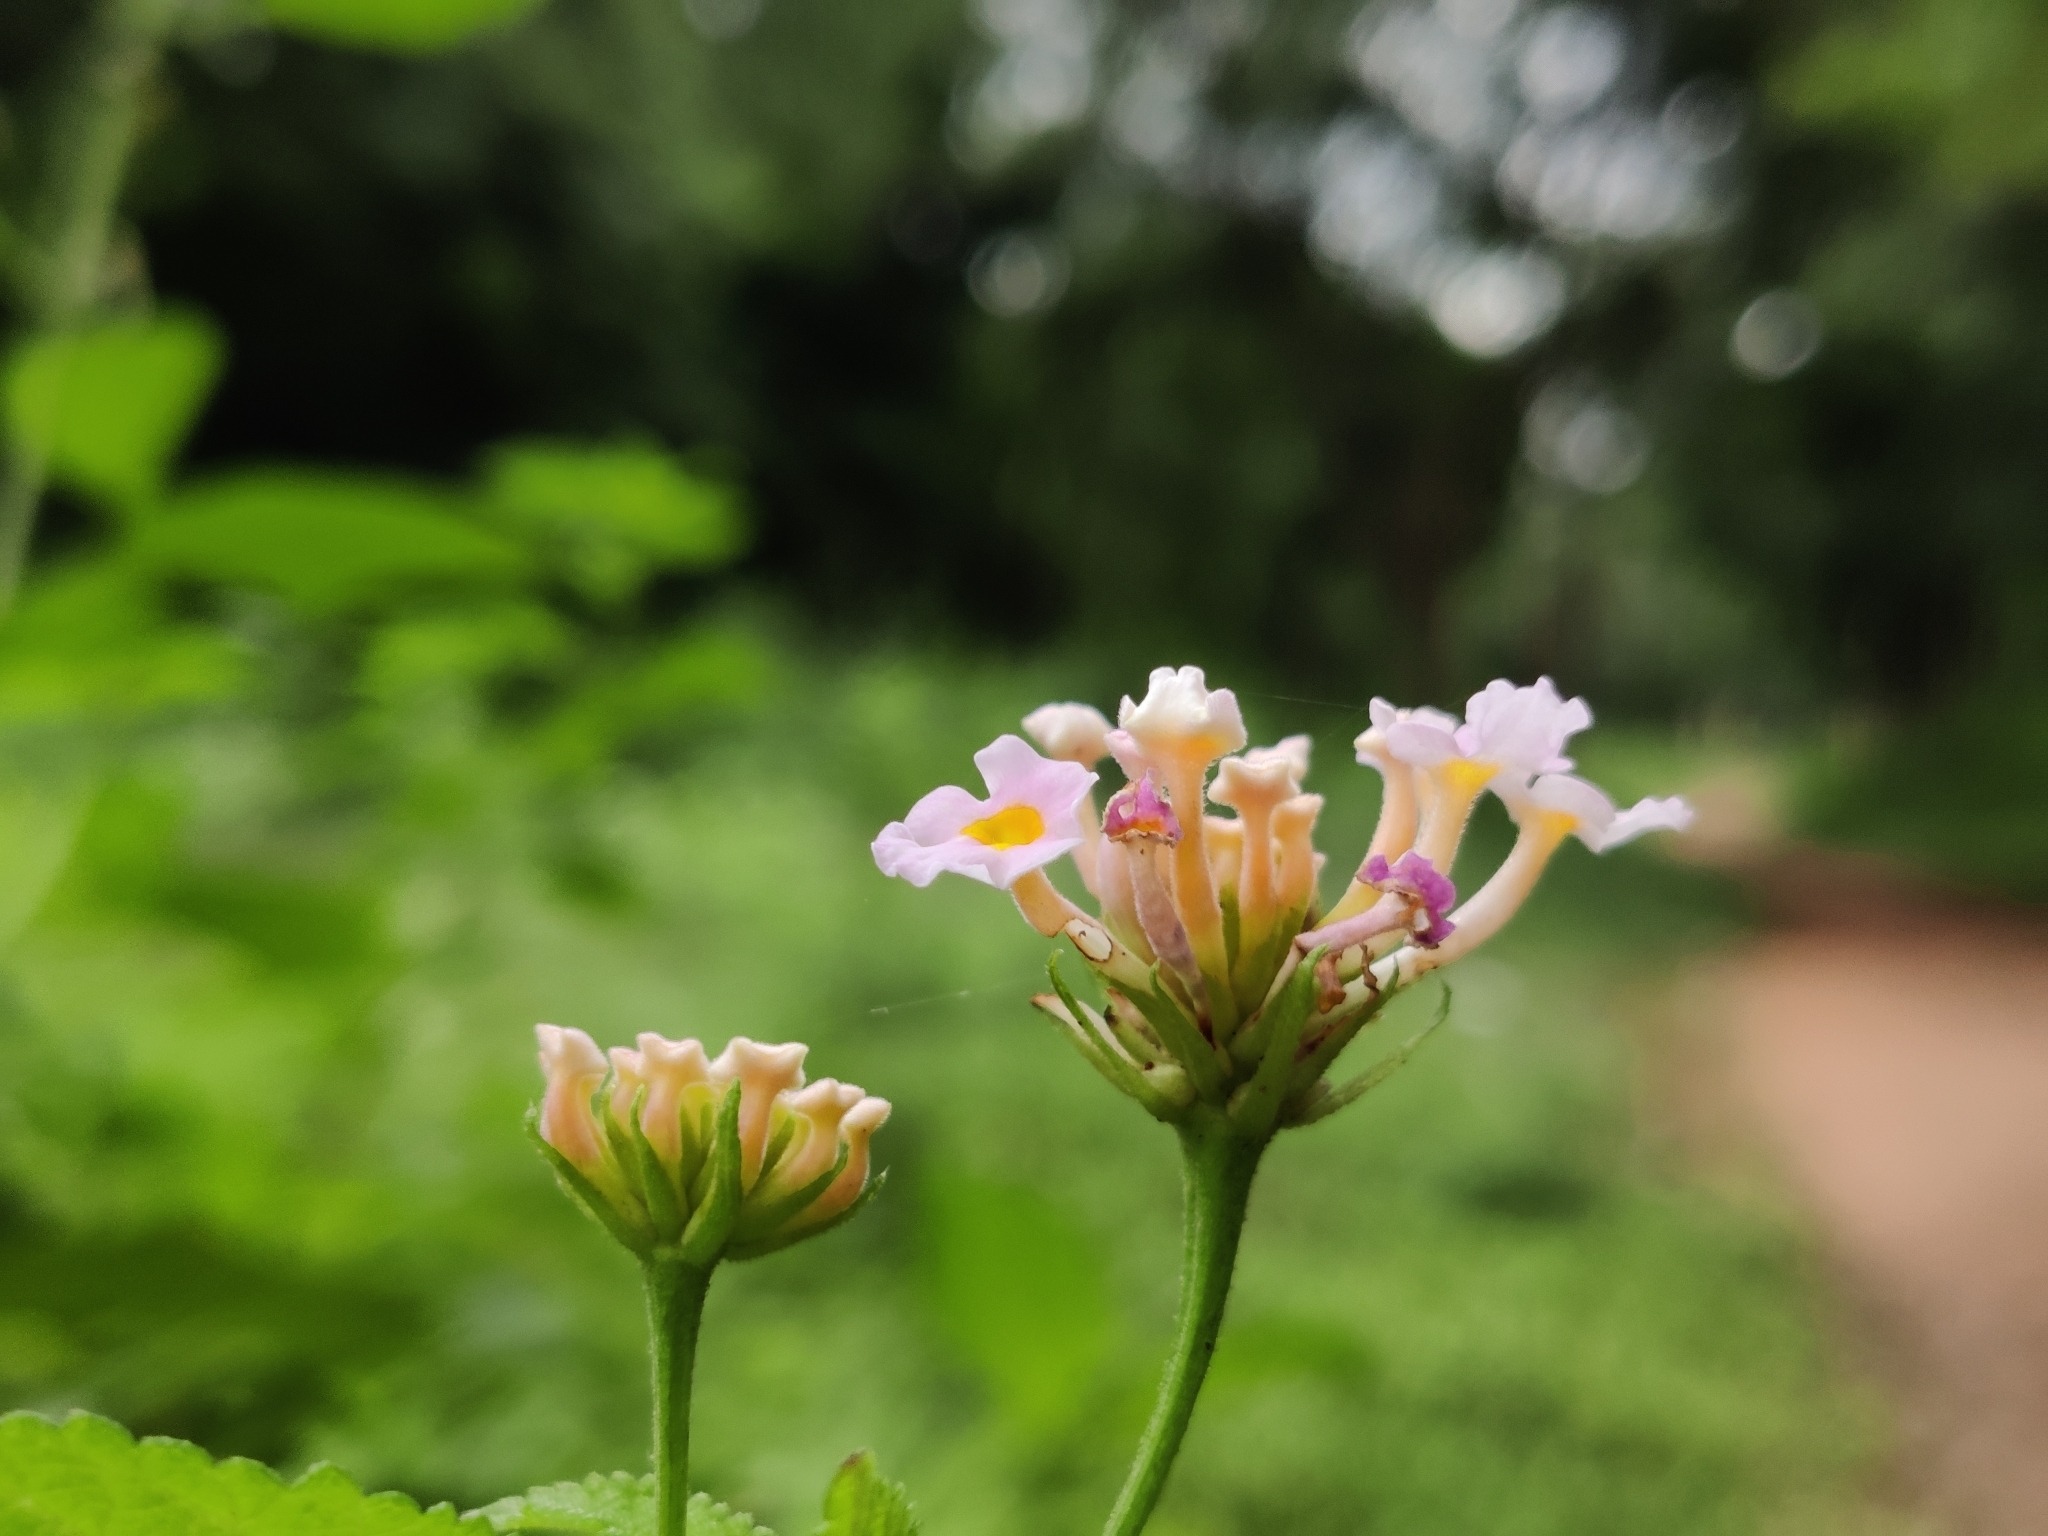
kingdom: Plantae
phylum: Tracheophyta
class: Magnoliopsida
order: Lamiales
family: Verbenaceae
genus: Lantana
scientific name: Lantana camara
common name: Lantana
